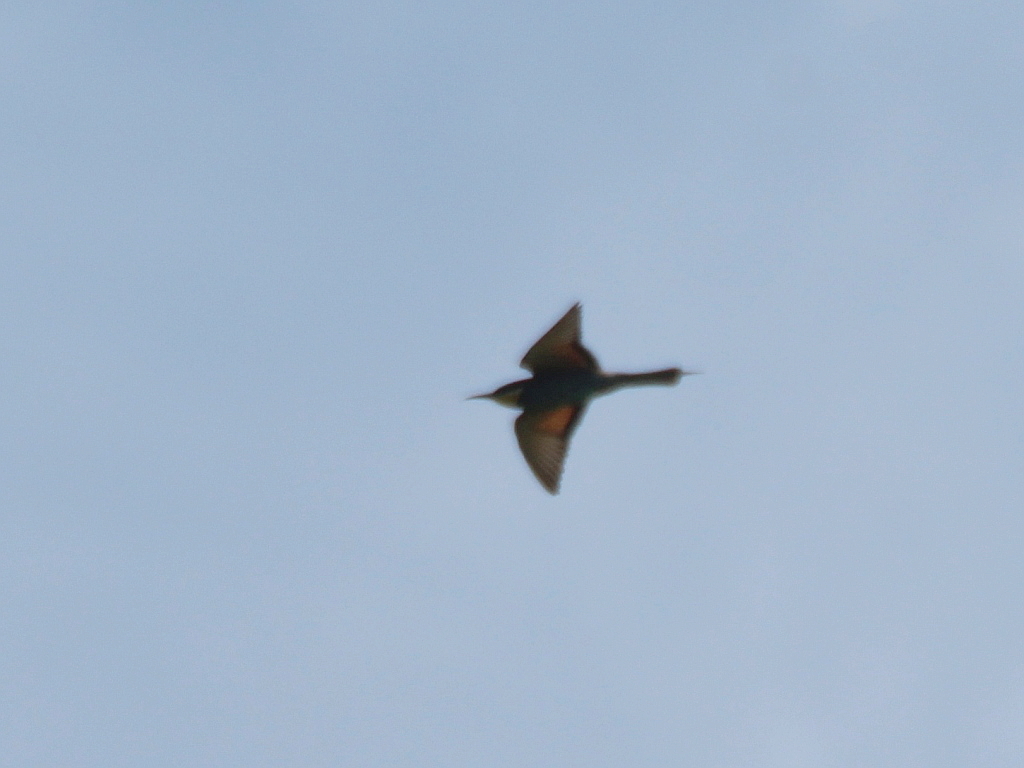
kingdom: Animalia
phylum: Chordata
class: Aves
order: Coraciiformes
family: Meropidae
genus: Merops
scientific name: Merops apiaster
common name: European bee-eater
